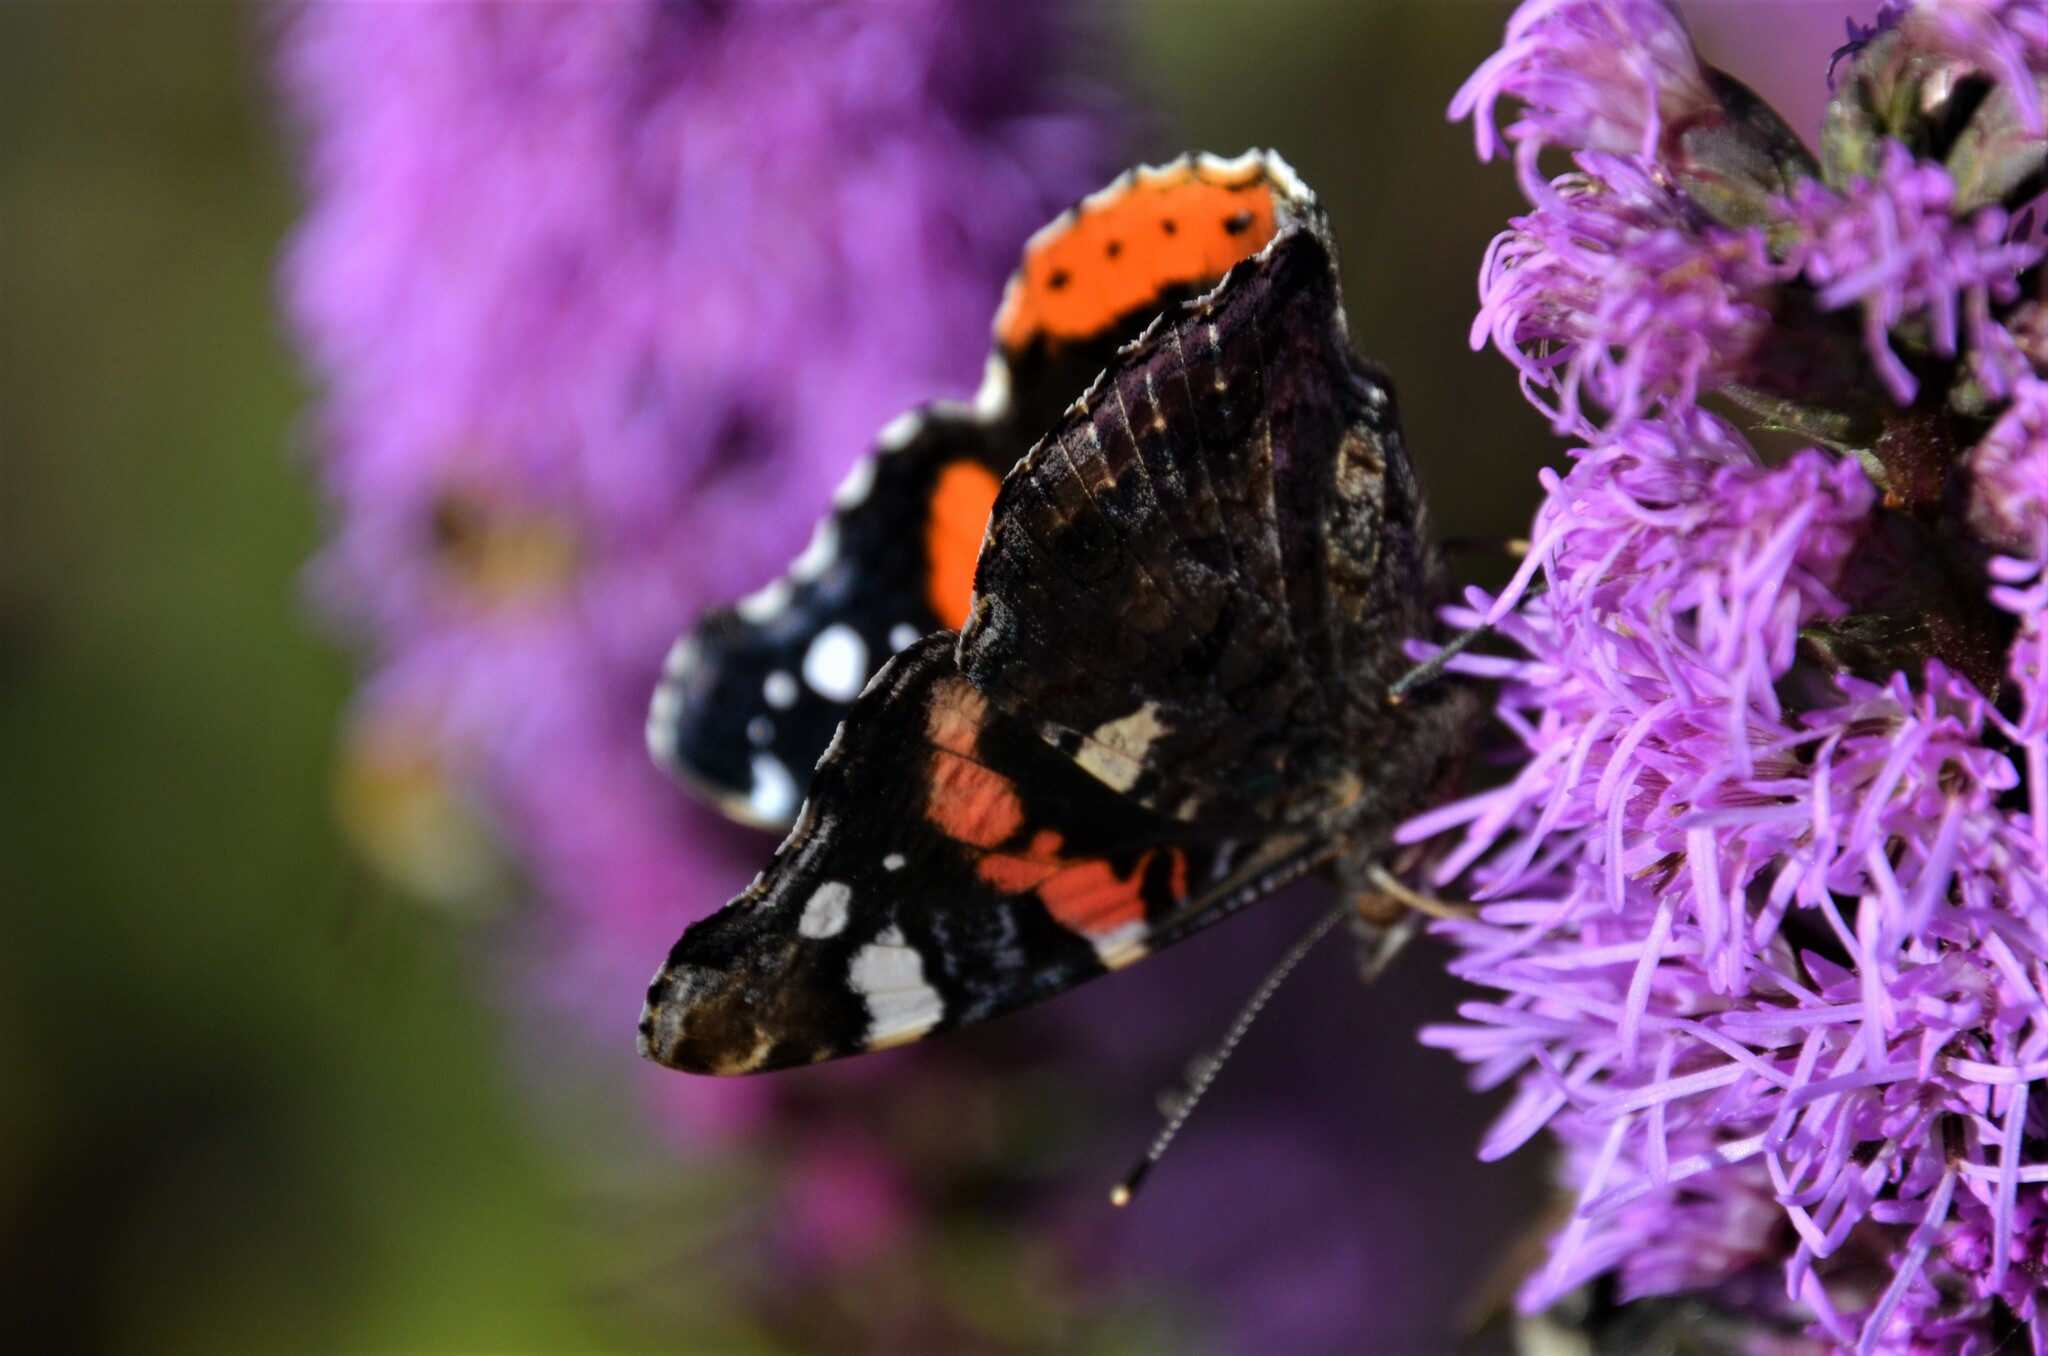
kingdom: Animalia
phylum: Arthropoda
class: Insecta
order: Lepidoptera
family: Nymphalidae
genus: Vanessa
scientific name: Vanessa atalanta
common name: Red admiral
